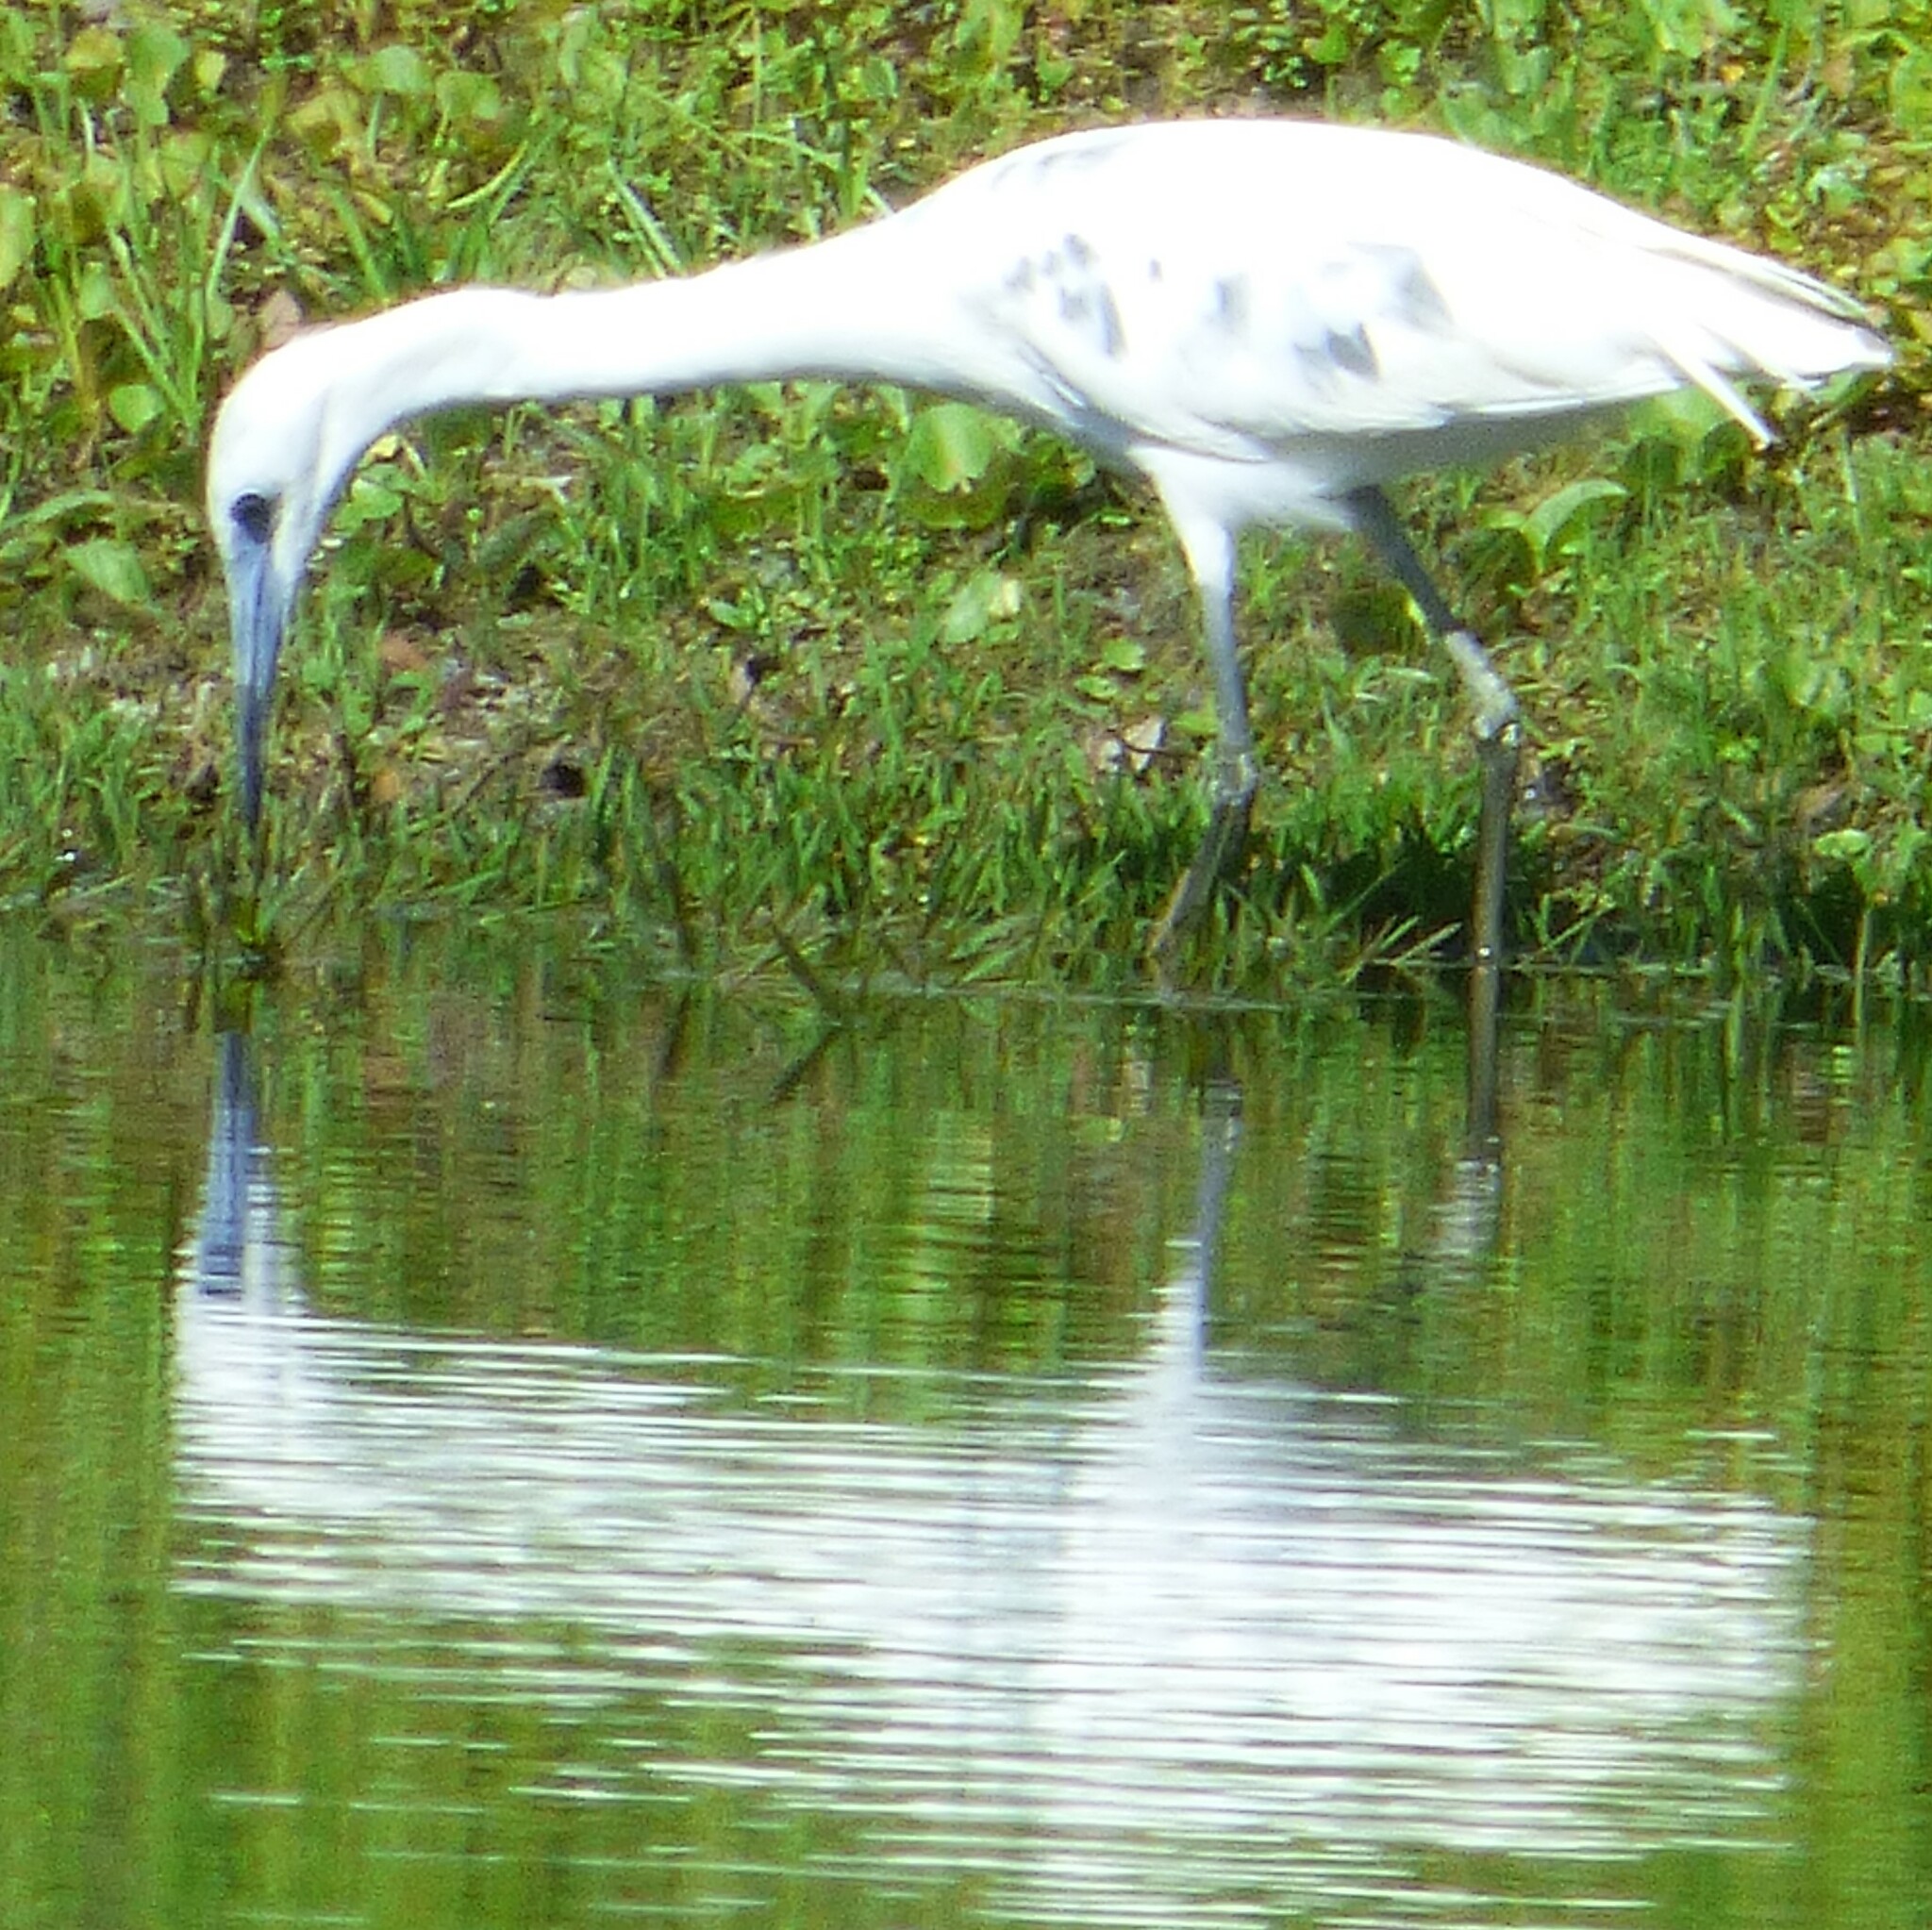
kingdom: Animalia
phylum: Chordata
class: Aves
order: Pelecaniformes
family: Ardeidae
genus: Egretta
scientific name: Egretta caerulea
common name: Little blue heron
